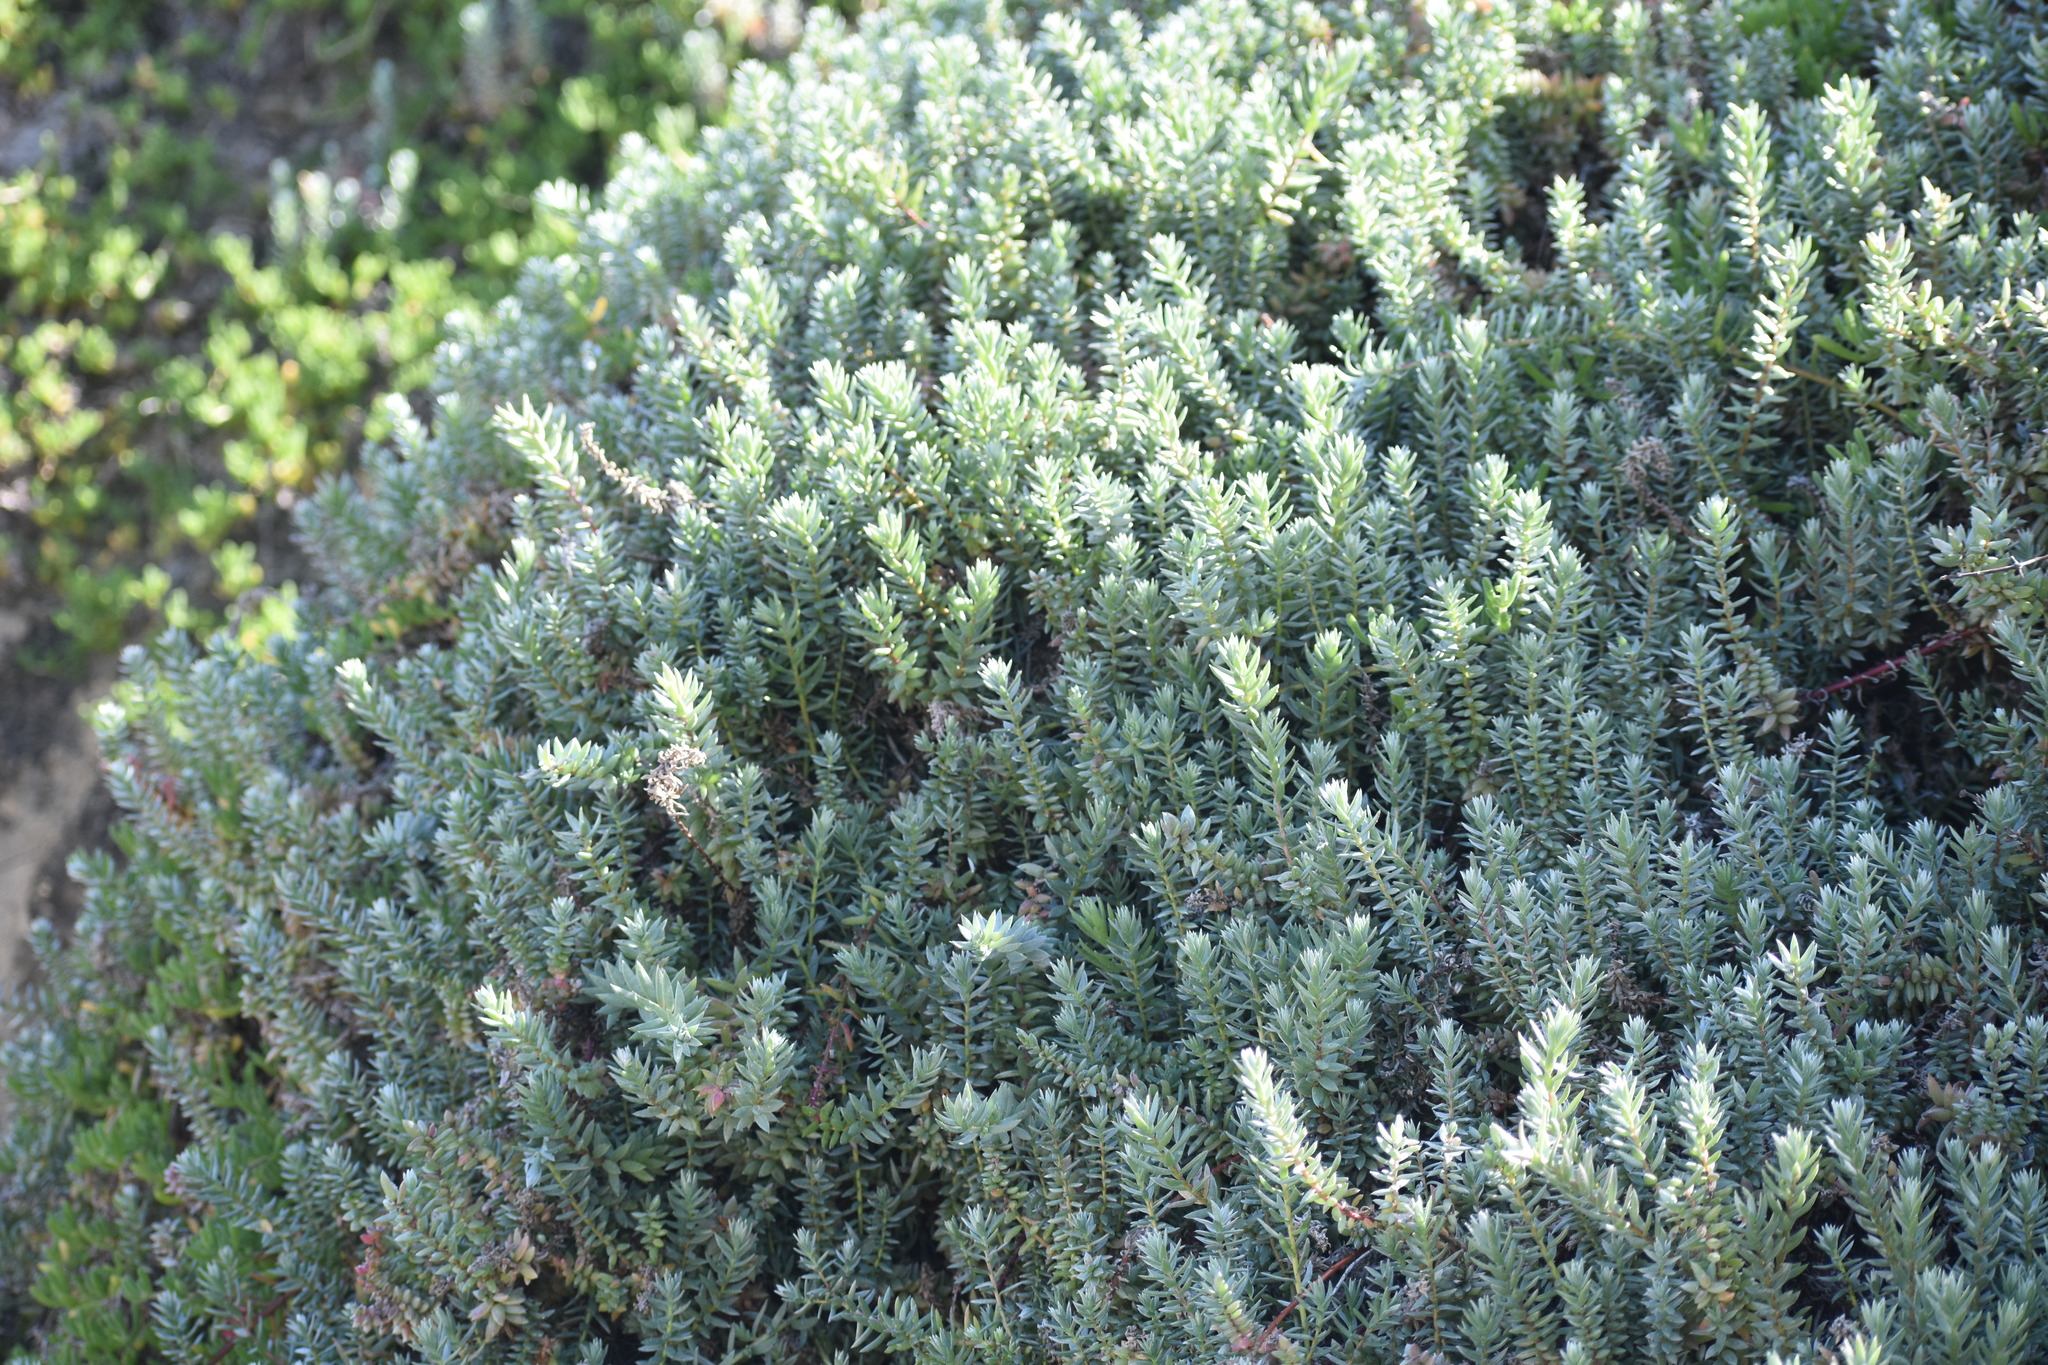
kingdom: Plantae
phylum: Tracheophyta
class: Magnoliopsida
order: Caryophyllales
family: Amaranthaceae
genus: Chenolea
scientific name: Chenolea diffusa
